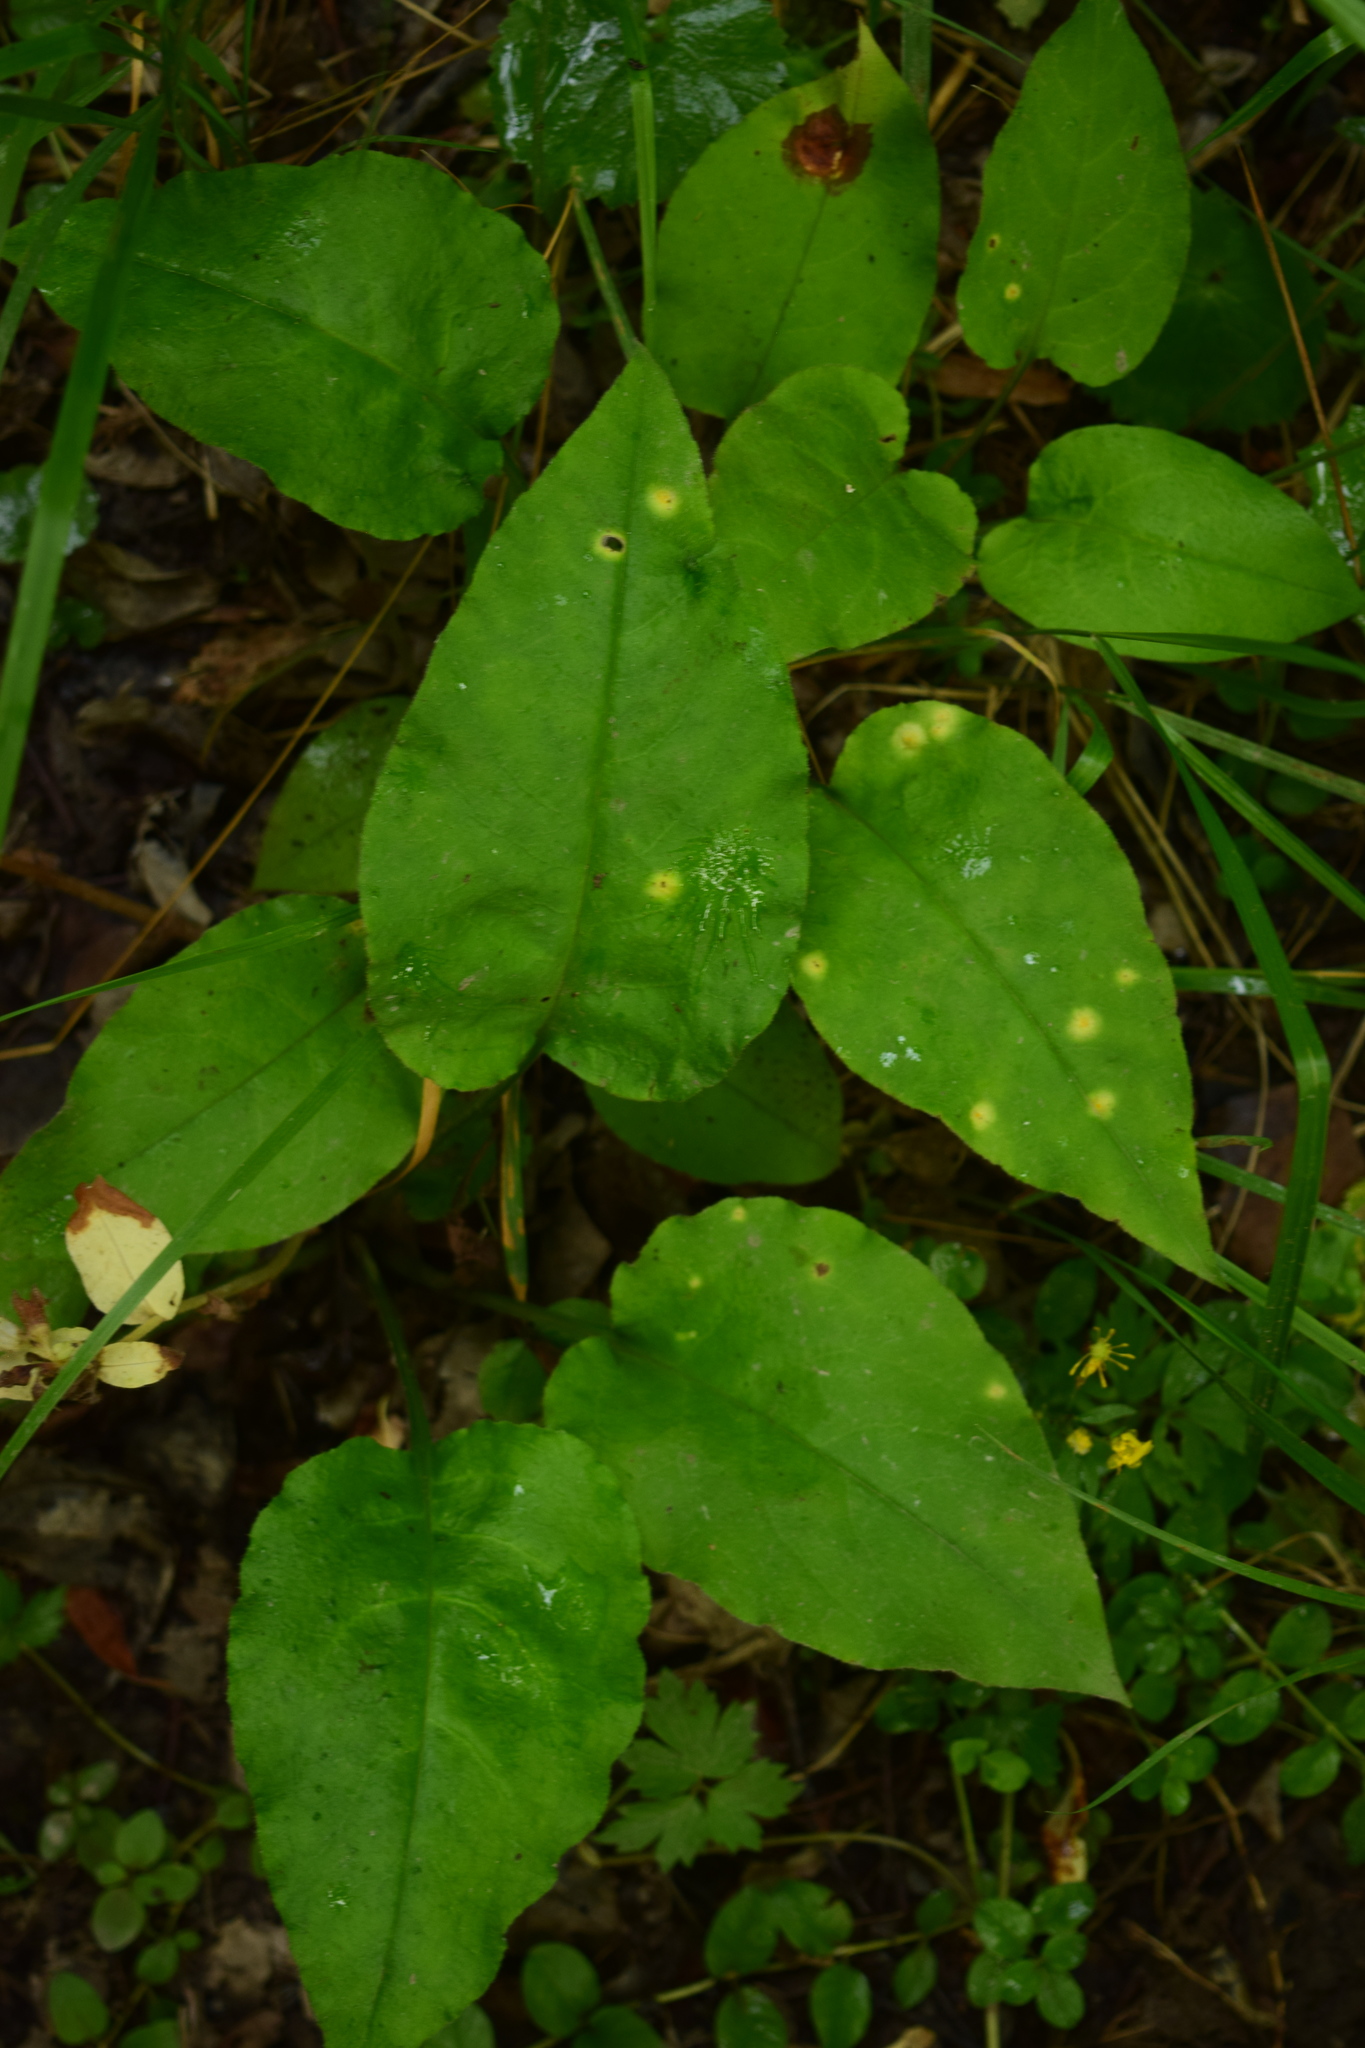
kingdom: Plantae
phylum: Tracheophyta
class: Magnoliopsida
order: Boraginales
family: Boraginaceae
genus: Pulmonaria
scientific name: Pulmonaria obscura
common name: Suffolk lungwort
